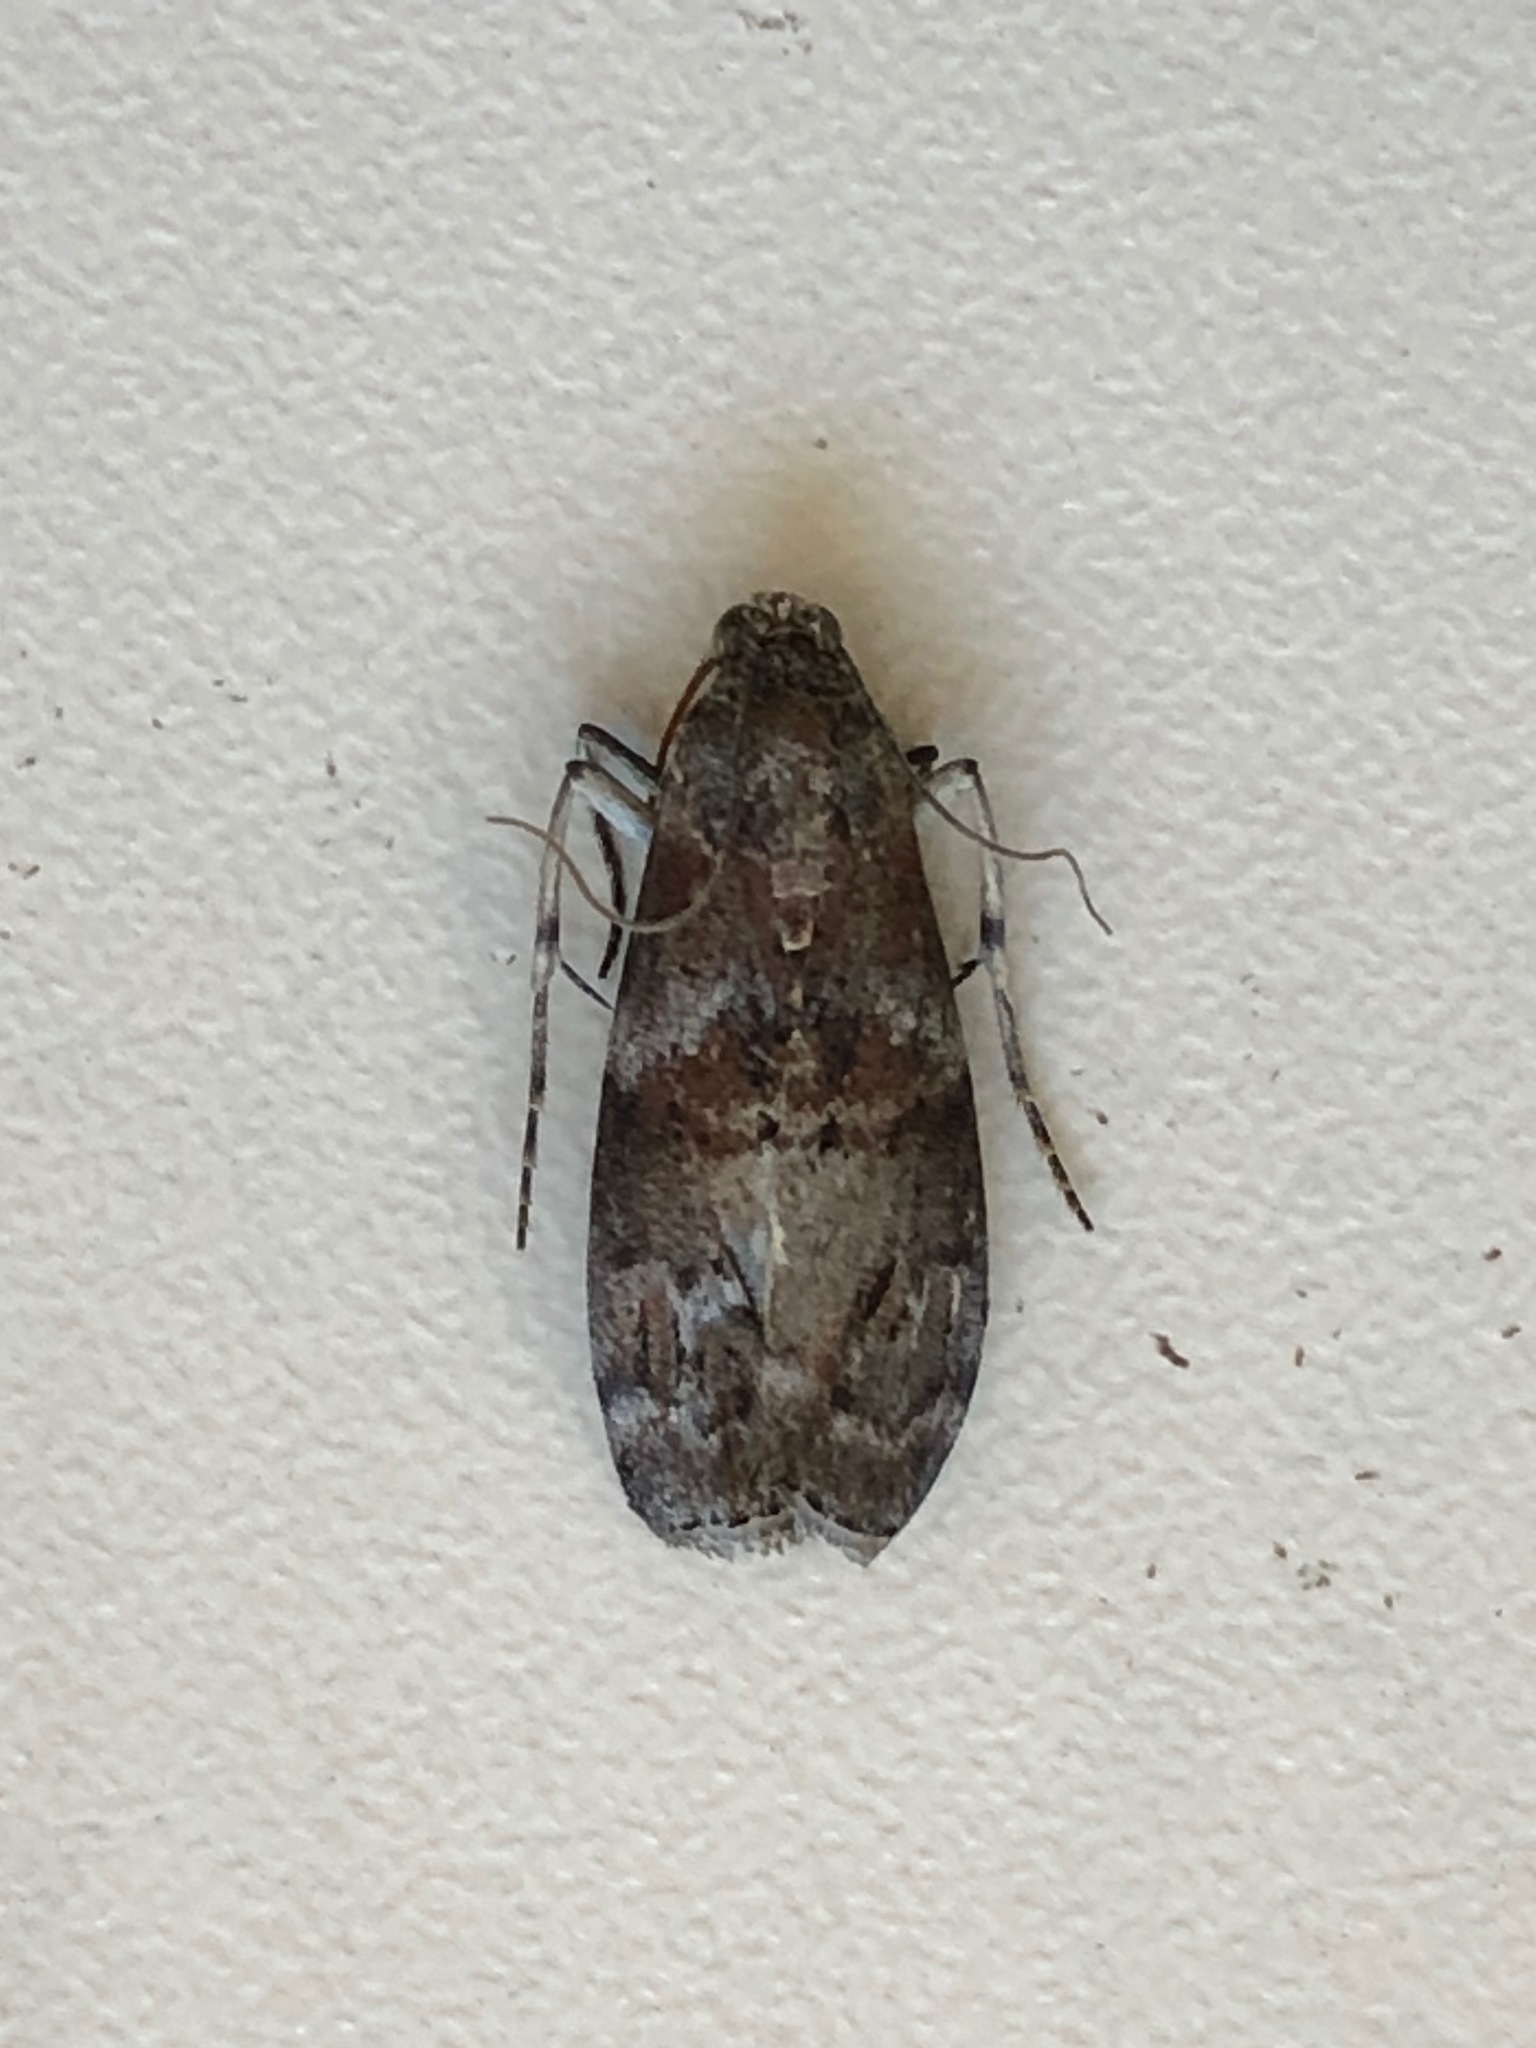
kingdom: Animalia
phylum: Arthropoda
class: Insecta
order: Lepidoptera
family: Pyralidae
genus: Phycita
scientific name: Phycita roborella
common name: Dotted oak knot-horn
